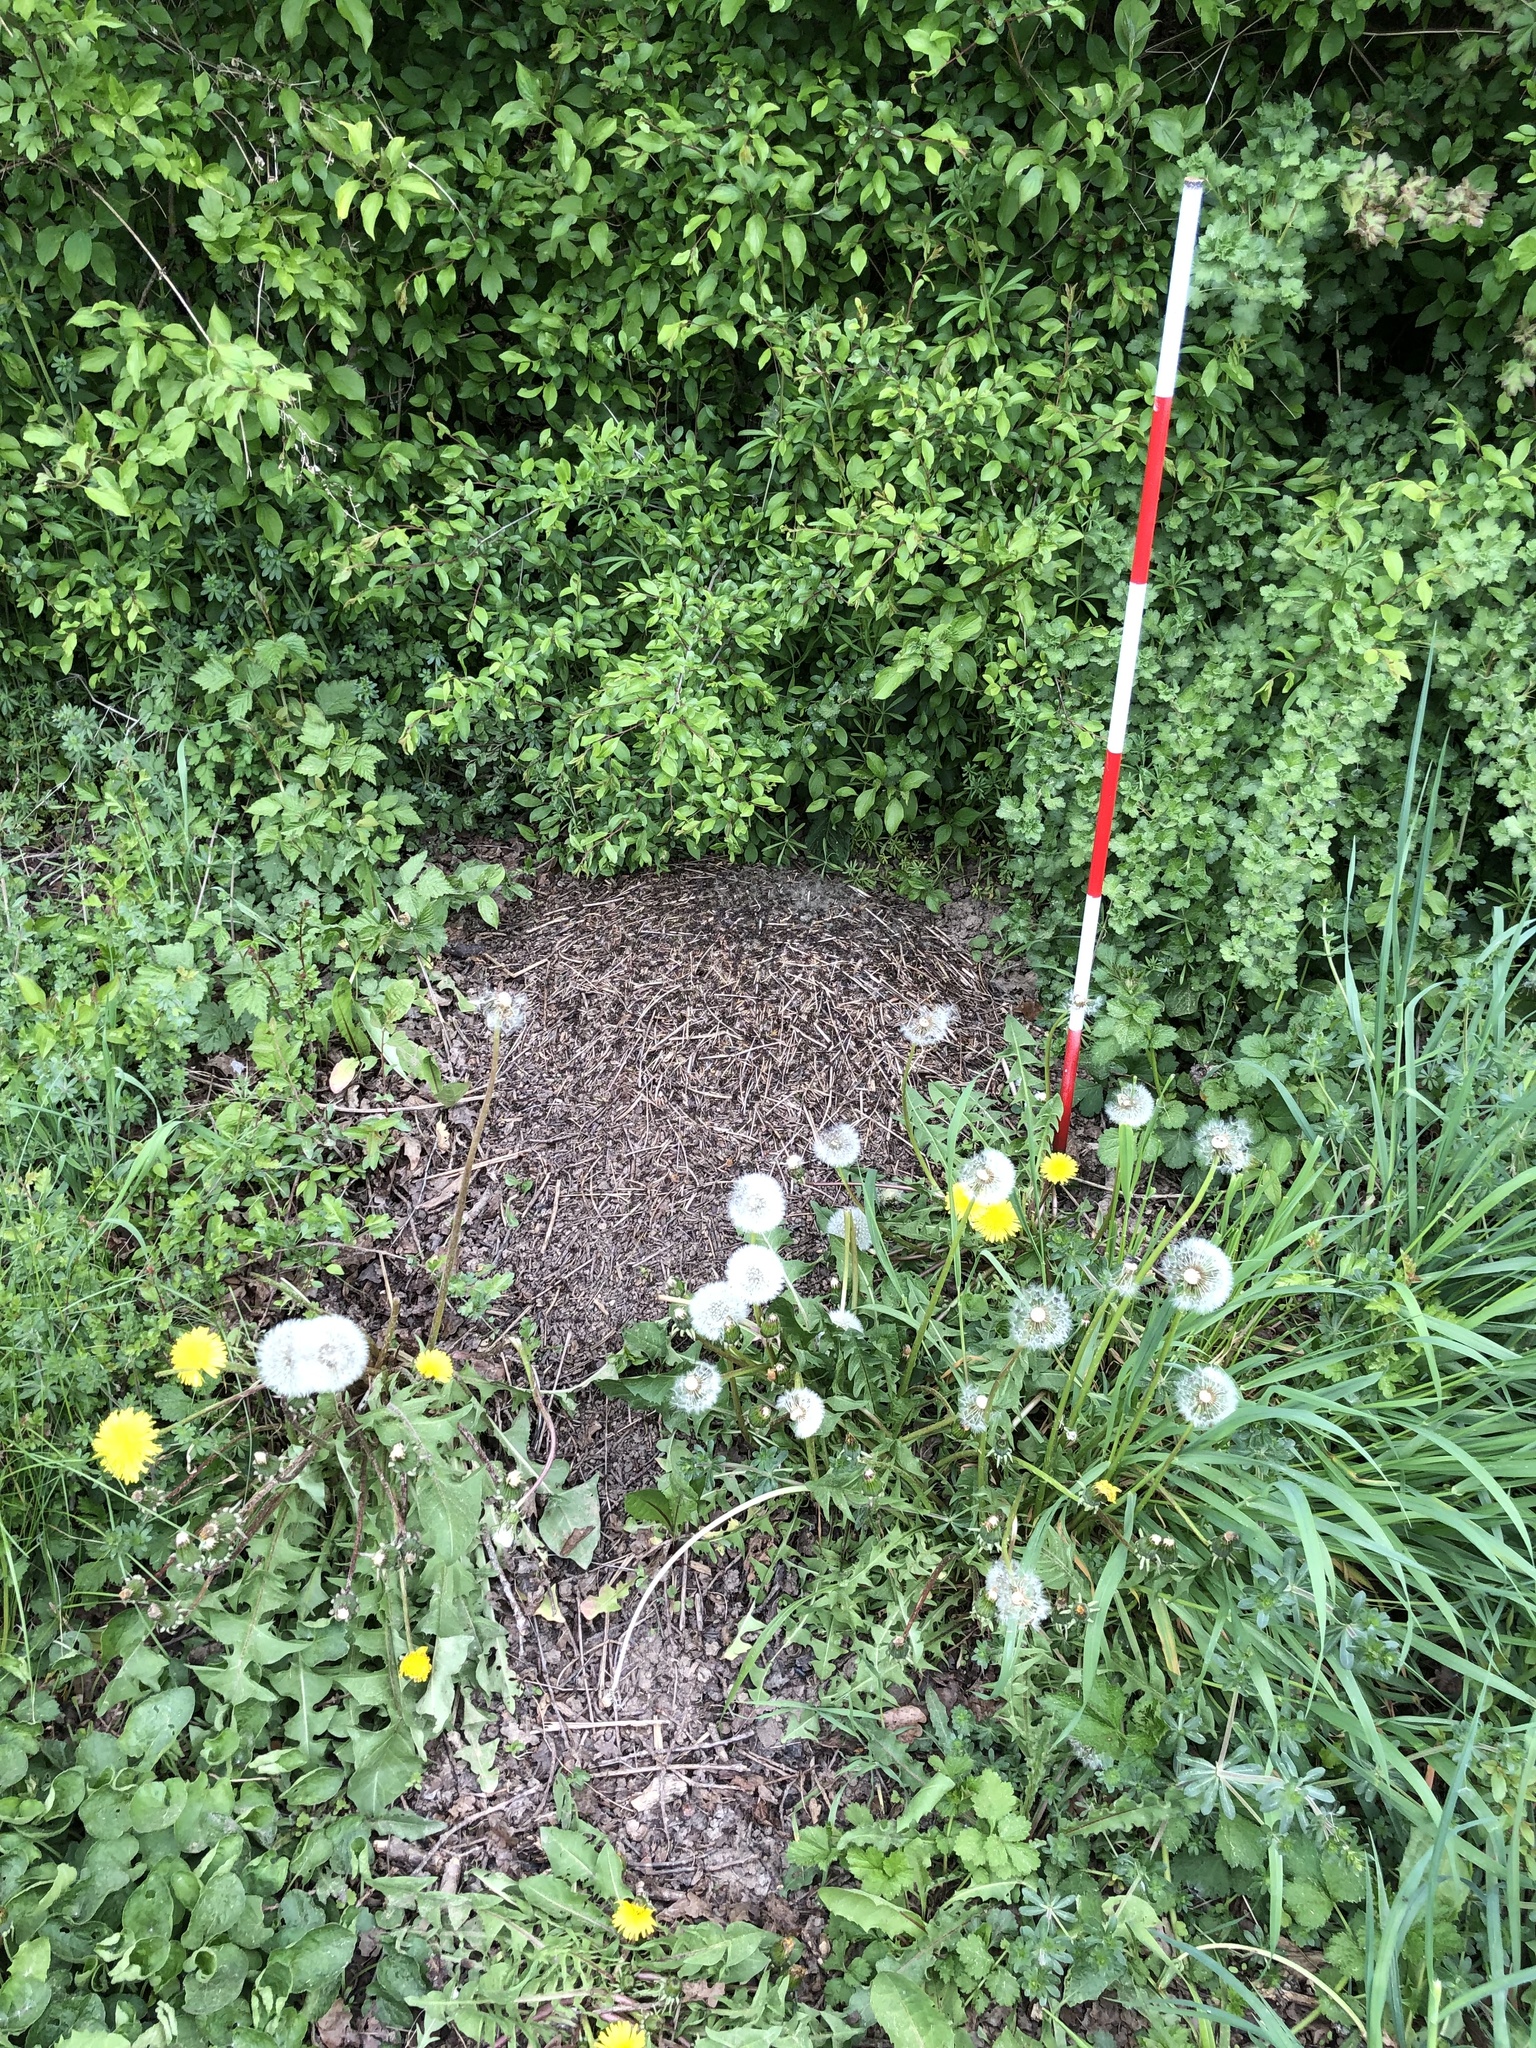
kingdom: Animalia
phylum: Arthropoda
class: Insecta
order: Hymenoptera
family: Formicidae
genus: Formica
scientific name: Formica pratensis
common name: European red wood ant
